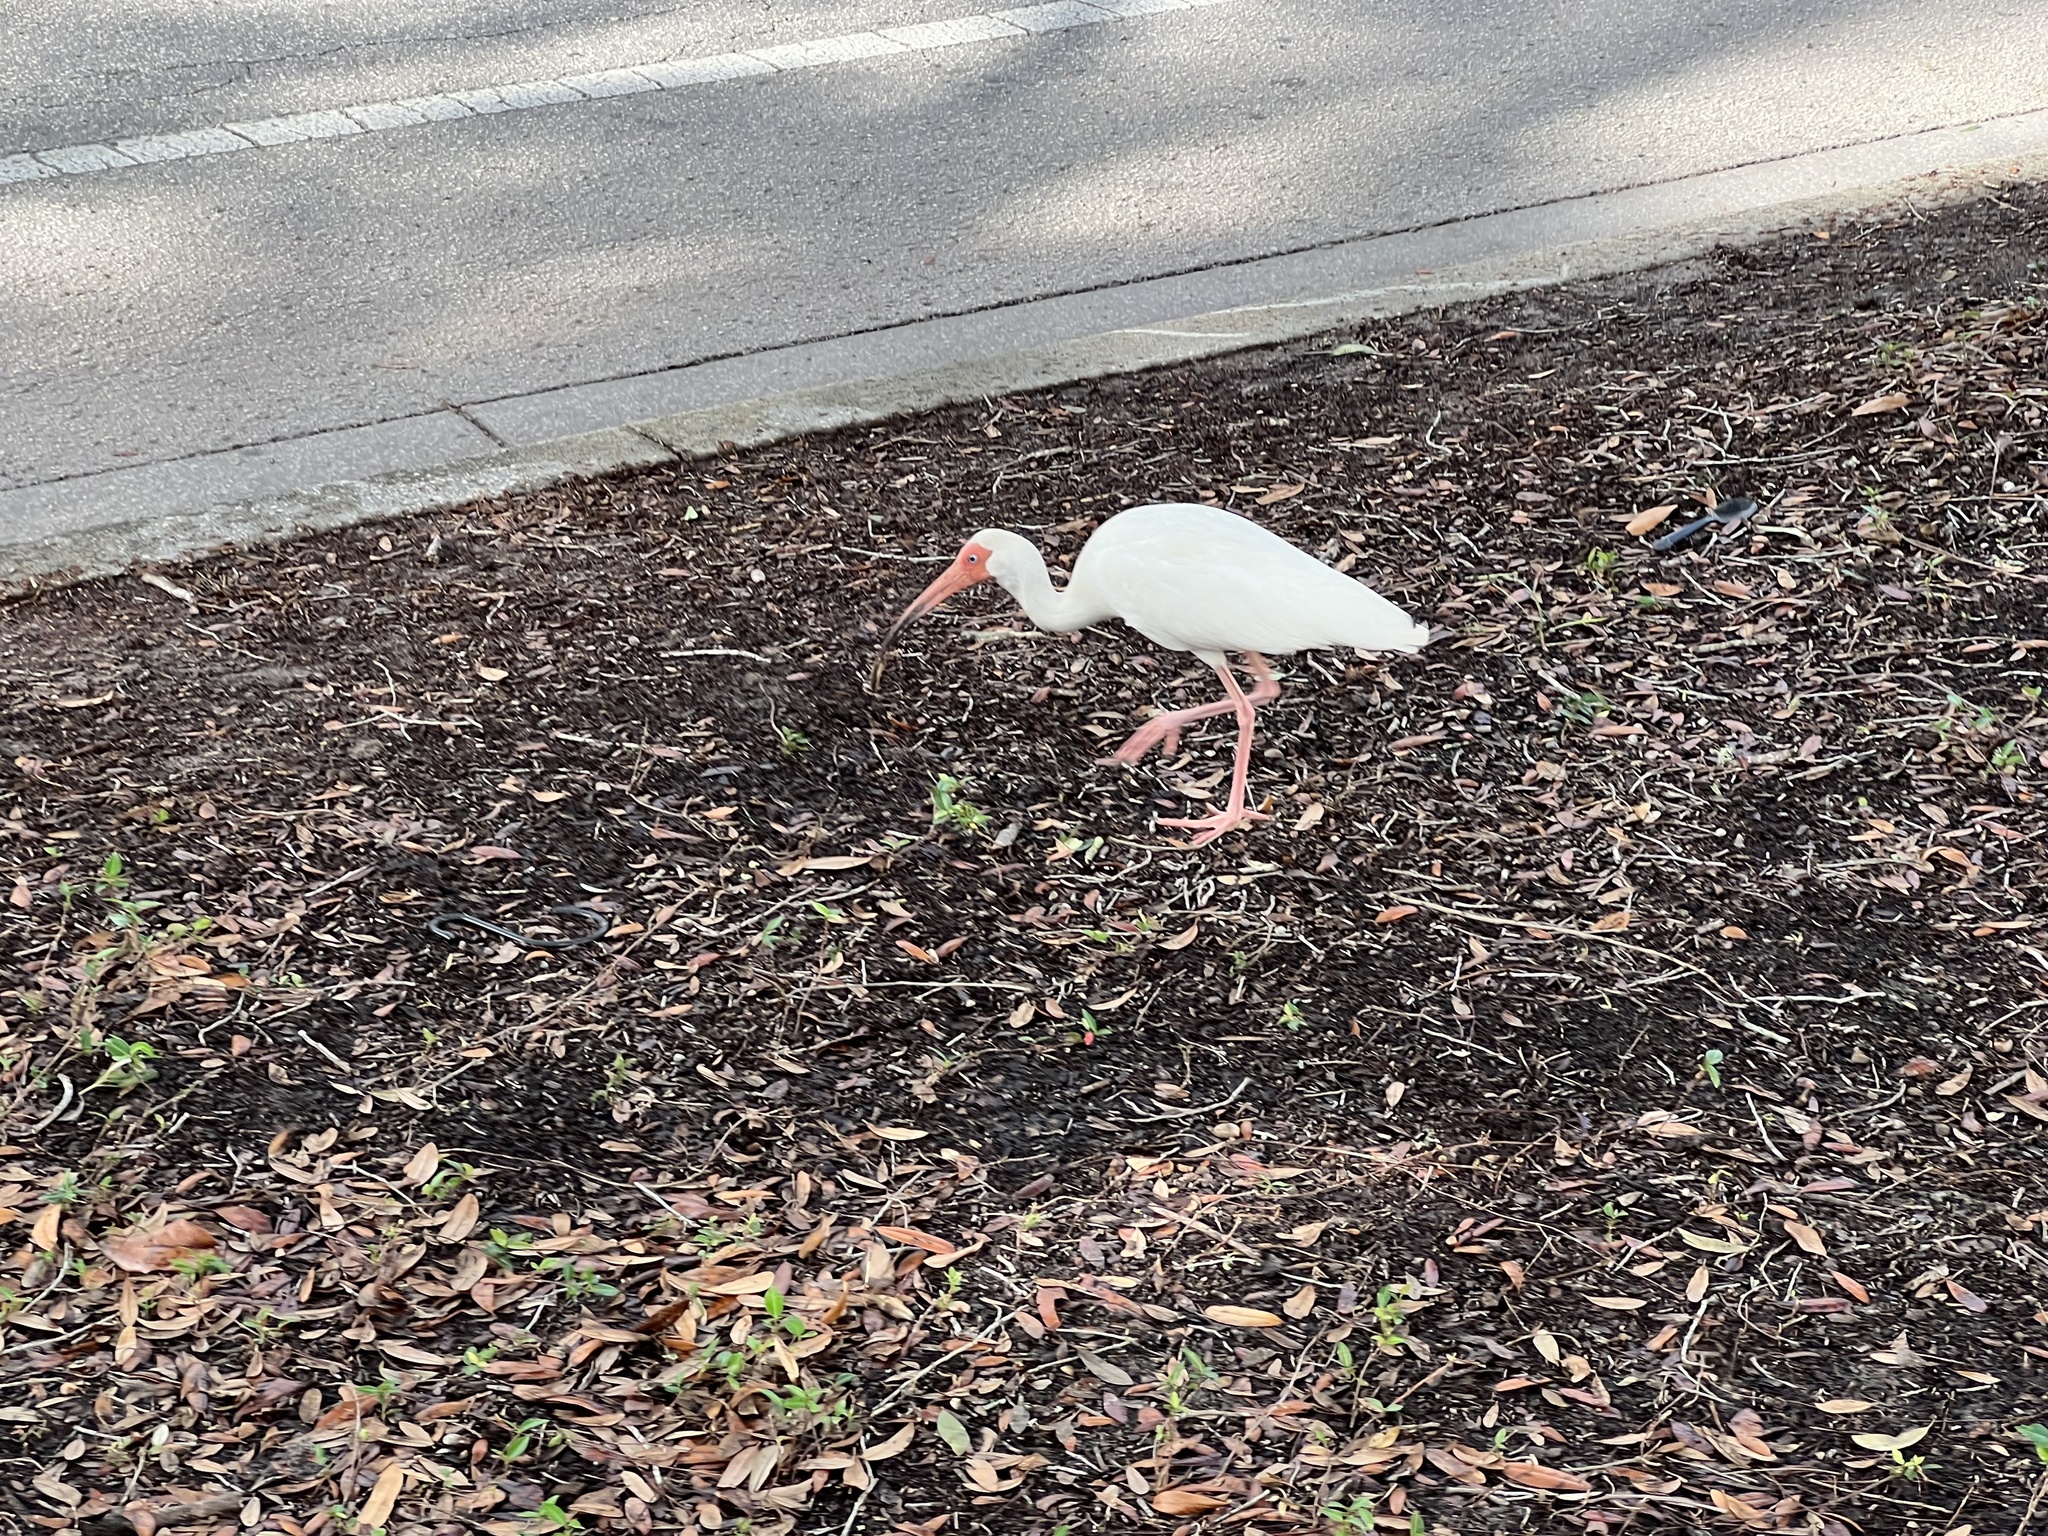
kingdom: Animalia
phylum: Chordata
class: Aves
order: Pelecaniformes
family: Threskiornithidae
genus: Eudocimus
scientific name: Eudocimus albus
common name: White ibis
